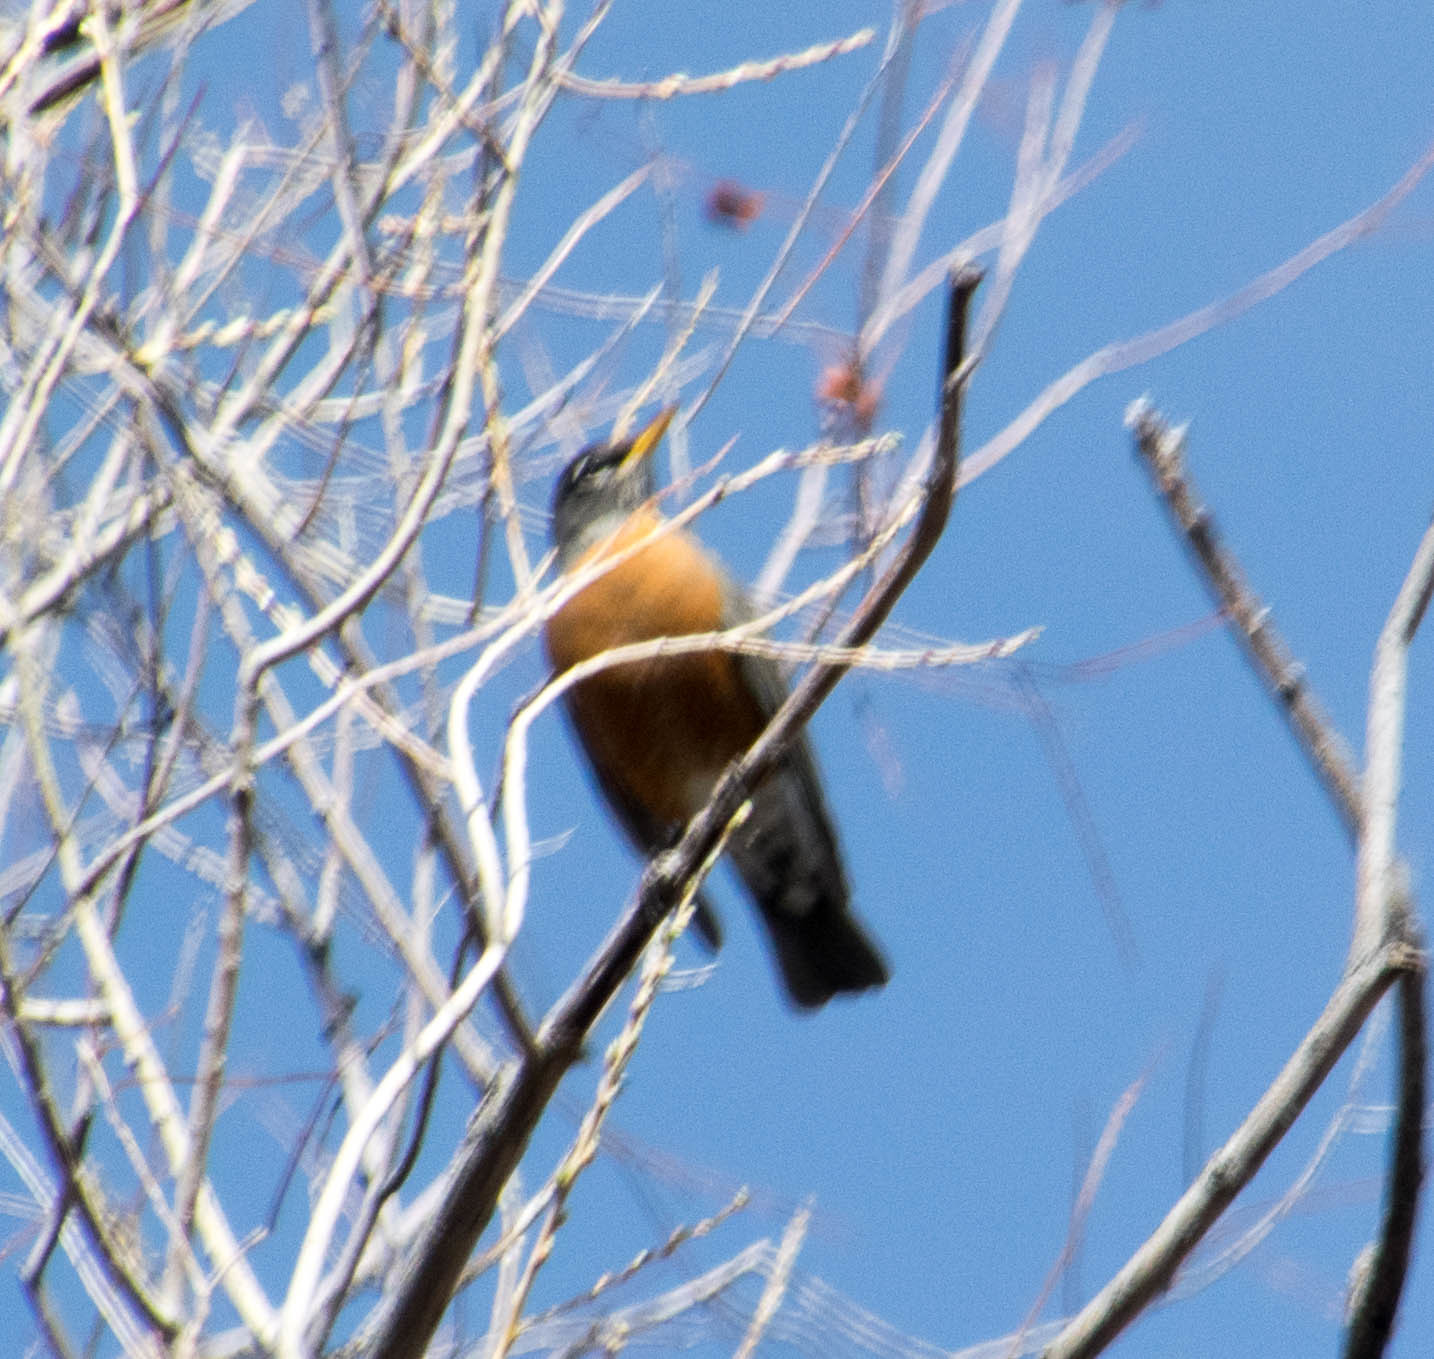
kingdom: Animalia
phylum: Chordata
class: Aves
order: Passeriformes
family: Turdidae
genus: Turdus
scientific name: Turdus migratorius
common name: American robin
